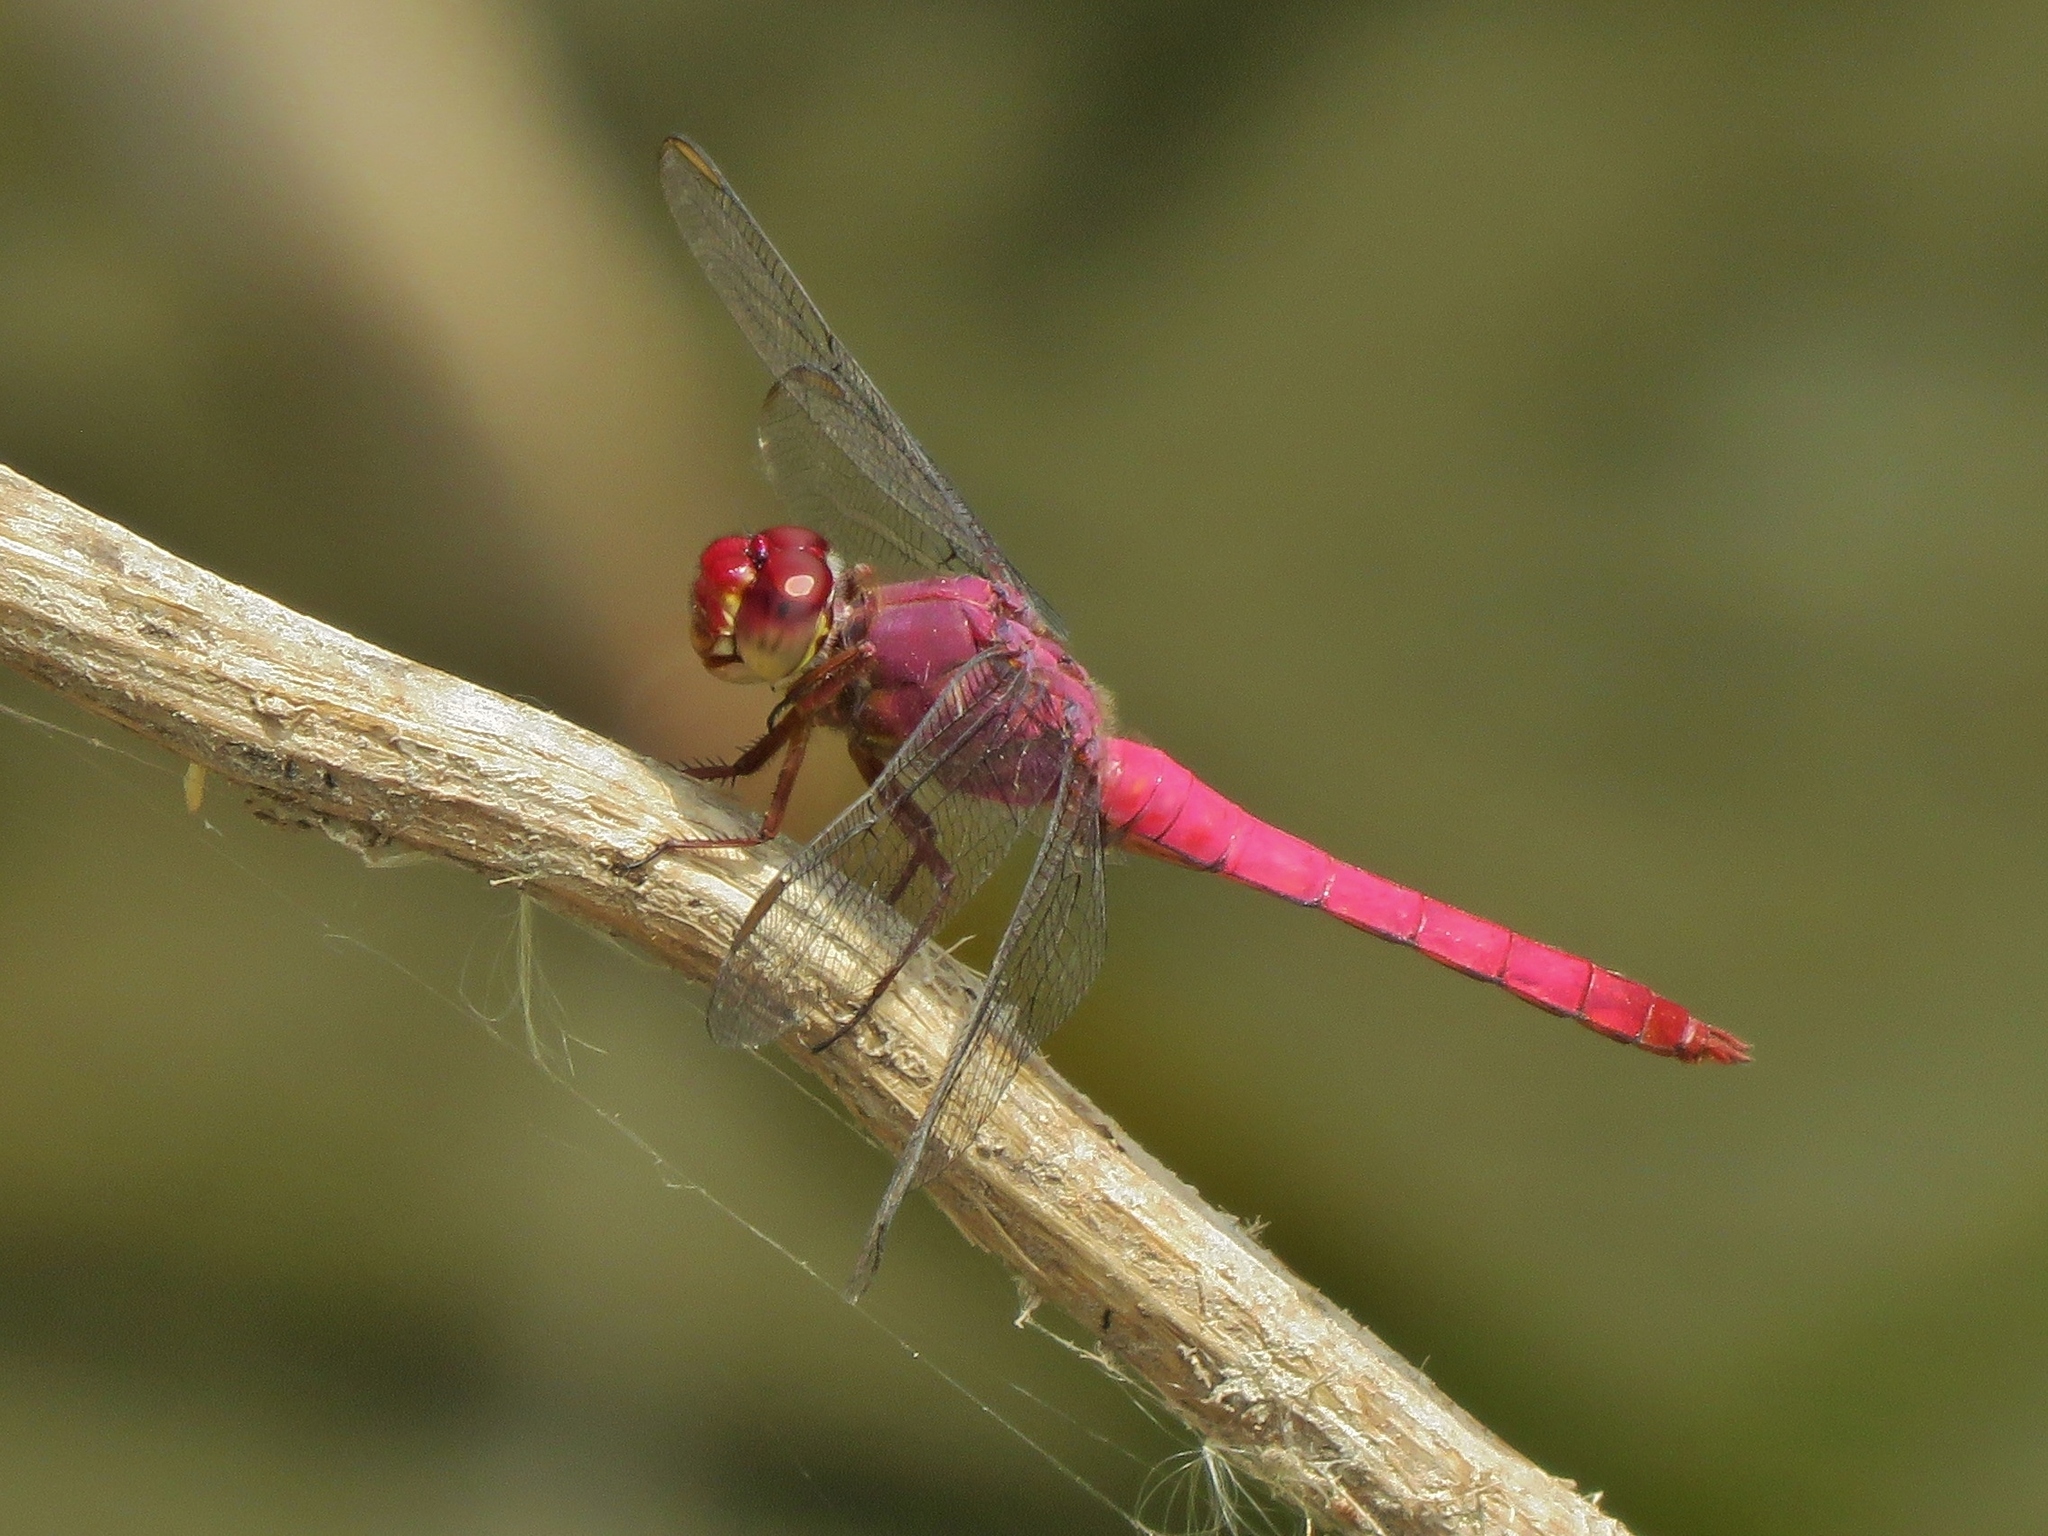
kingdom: Animalia
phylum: Arthropoda
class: Insecta
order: Odonata
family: Libellulidae
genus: Orthemis
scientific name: Orthemis discolor
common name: Carmine skimmer
